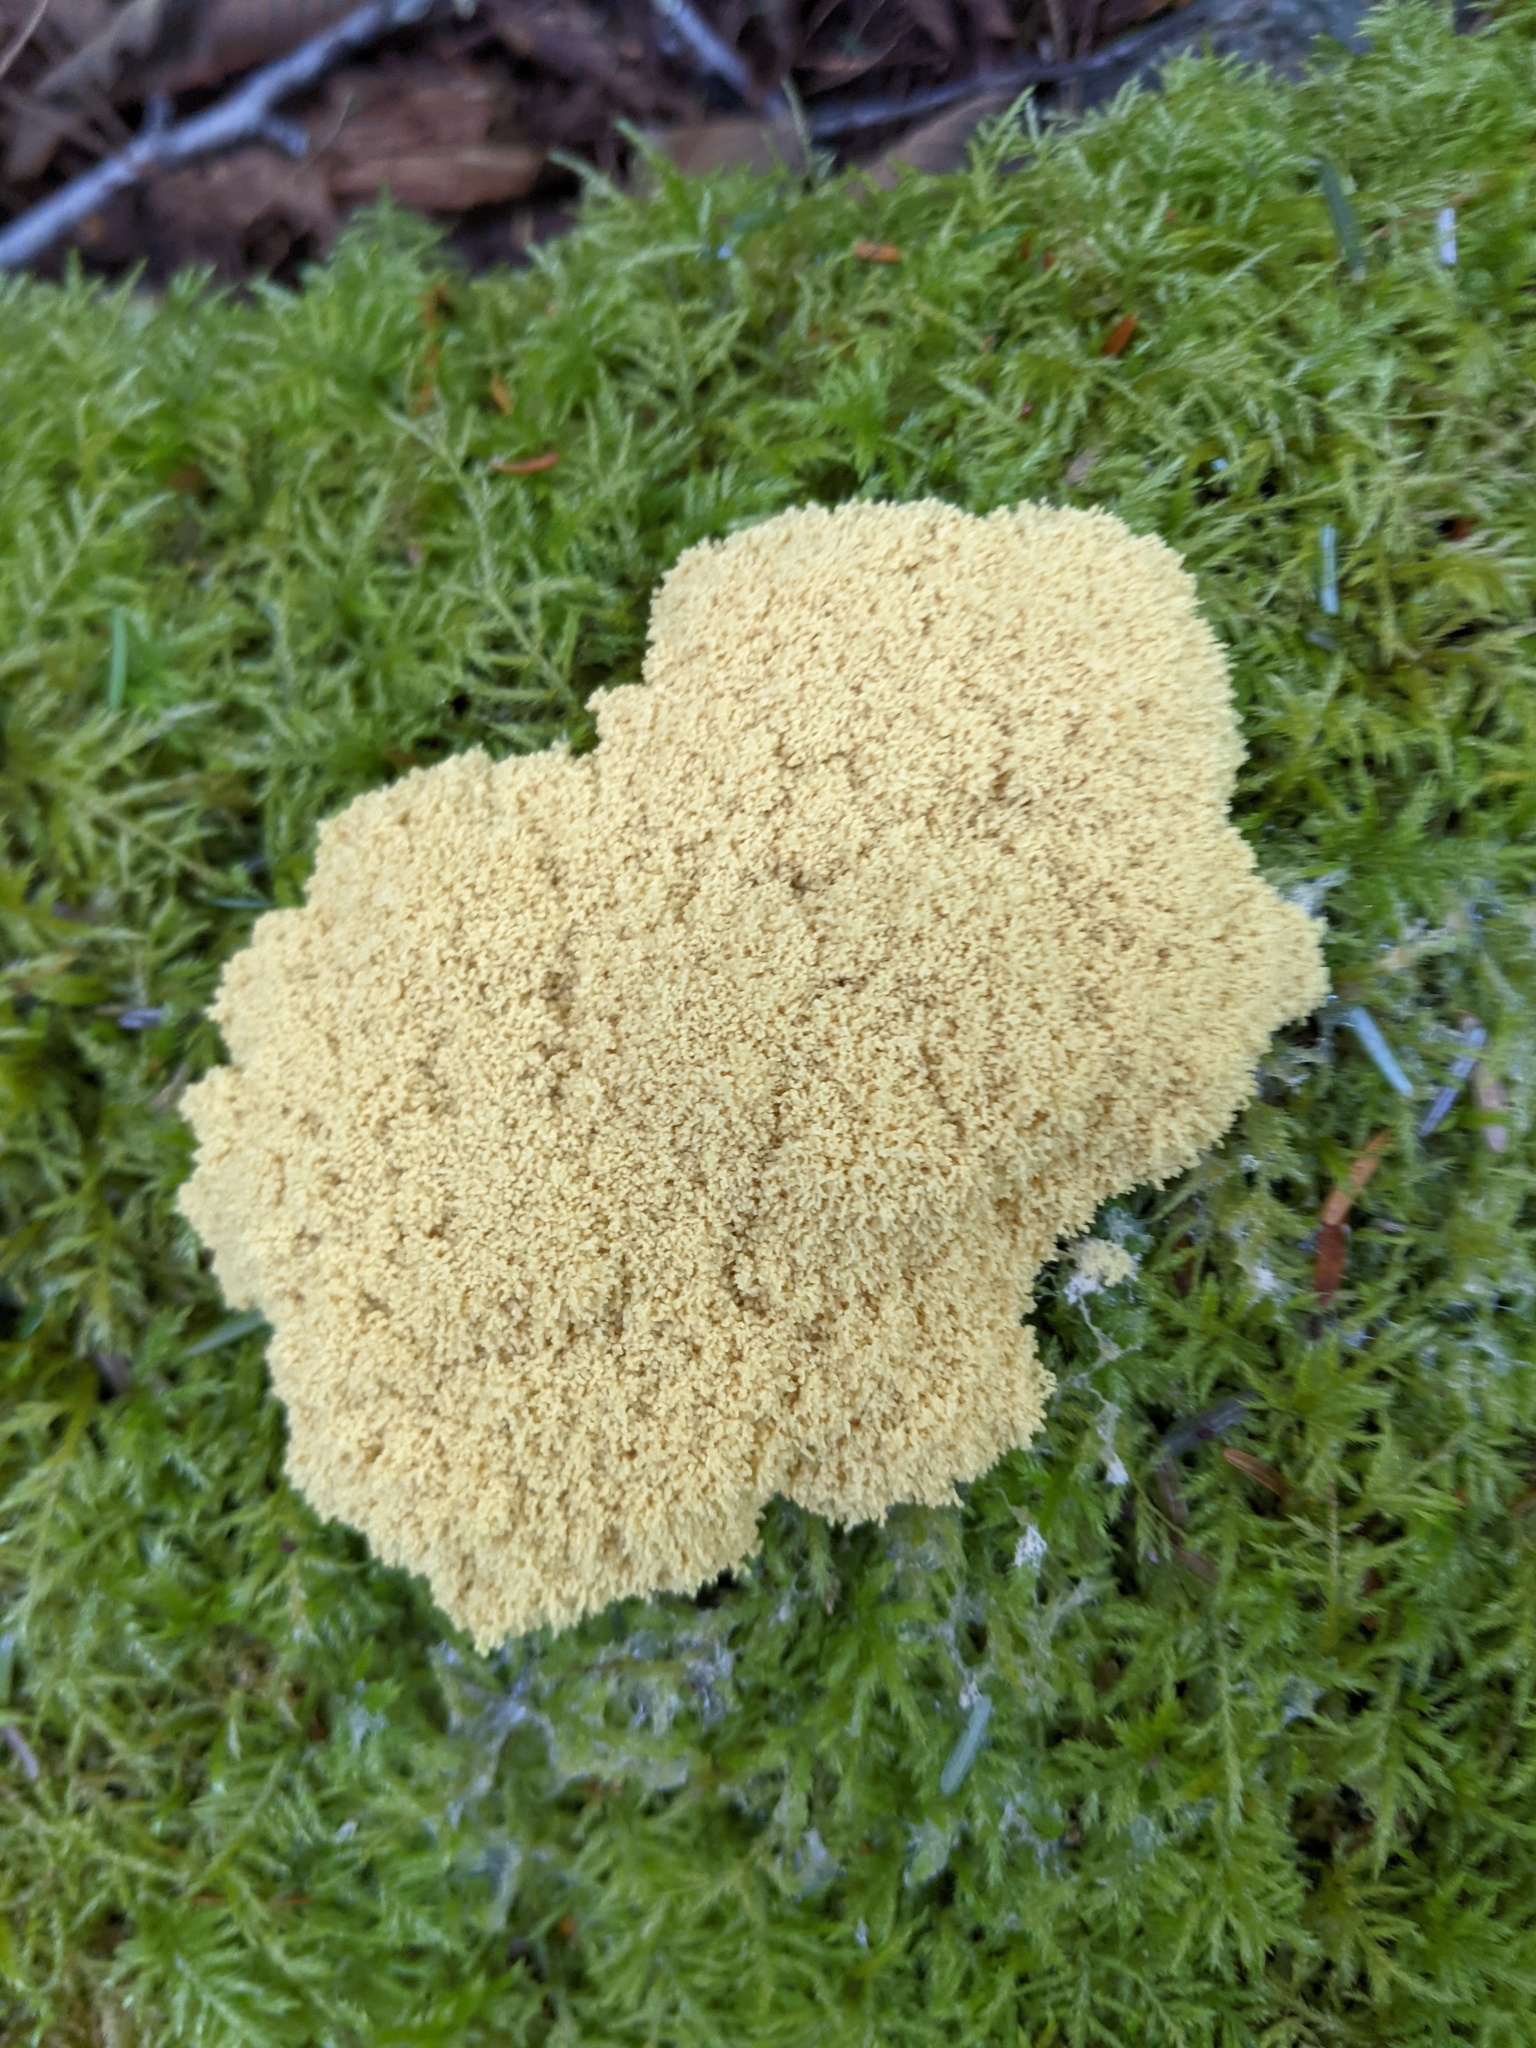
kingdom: Protozoa
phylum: Mycetozoa
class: Myxomycetes
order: Physarales
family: Physaraceae
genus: Fuligo
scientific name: Fuligo septica
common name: Dog vomit slime mold
